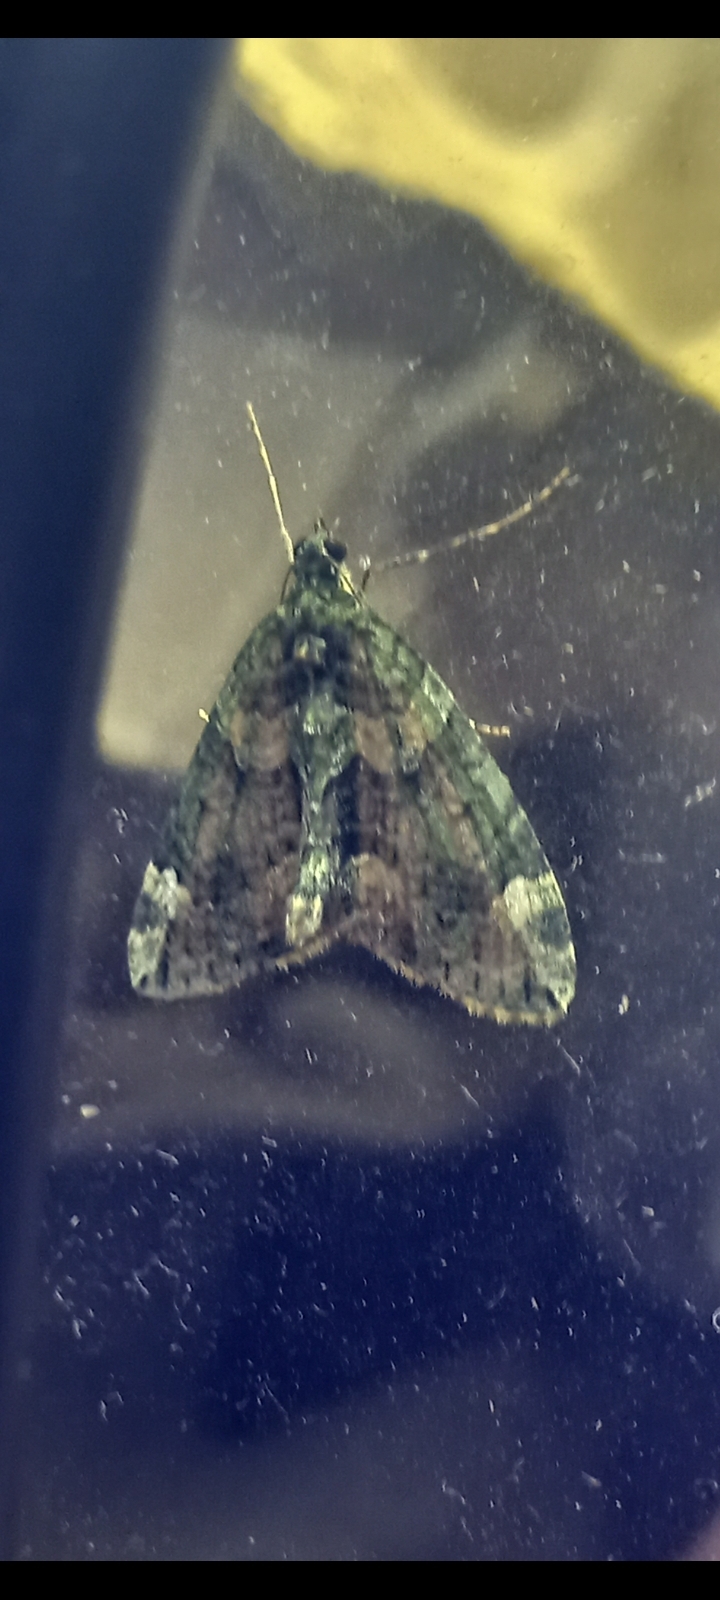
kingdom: Animalia
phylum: Arthropoda
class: Insecta
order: Lepidoptera
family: Geometridae
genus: Chloroclysta
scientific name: Chloroclysta siterata
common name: Red-green carpet
